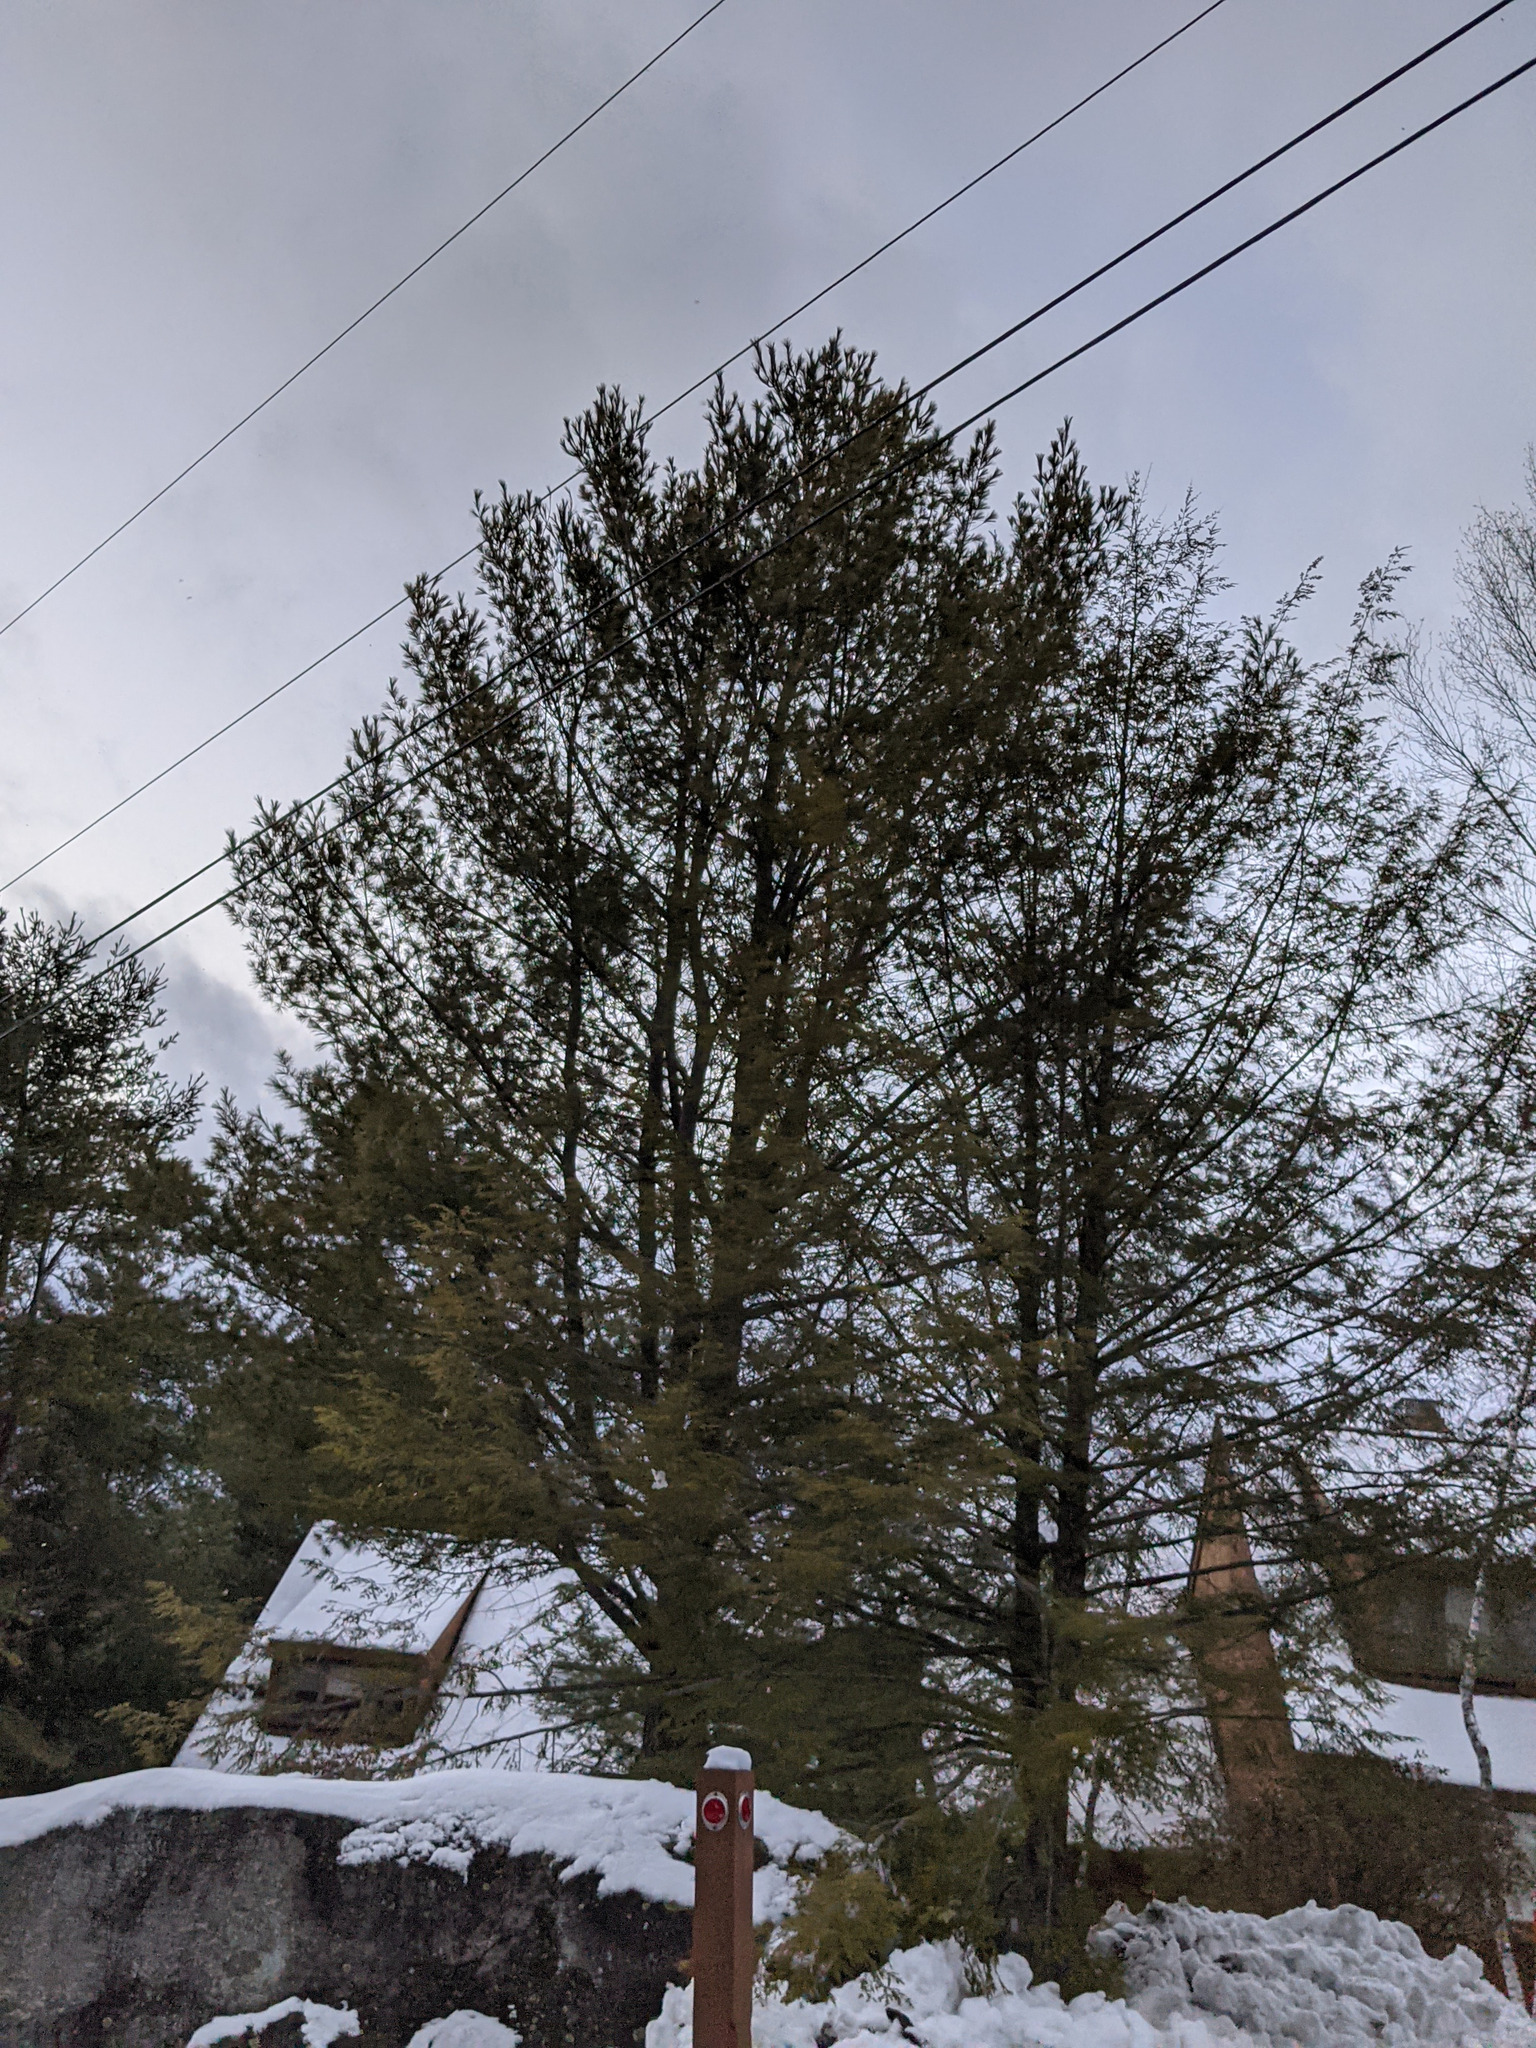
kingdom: Plantae
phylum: Tracheophyta
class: Pinopsida
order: Pinales
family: Pinaceae
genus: Pinus
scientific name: Pinus strobus
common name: Weymouth pine
